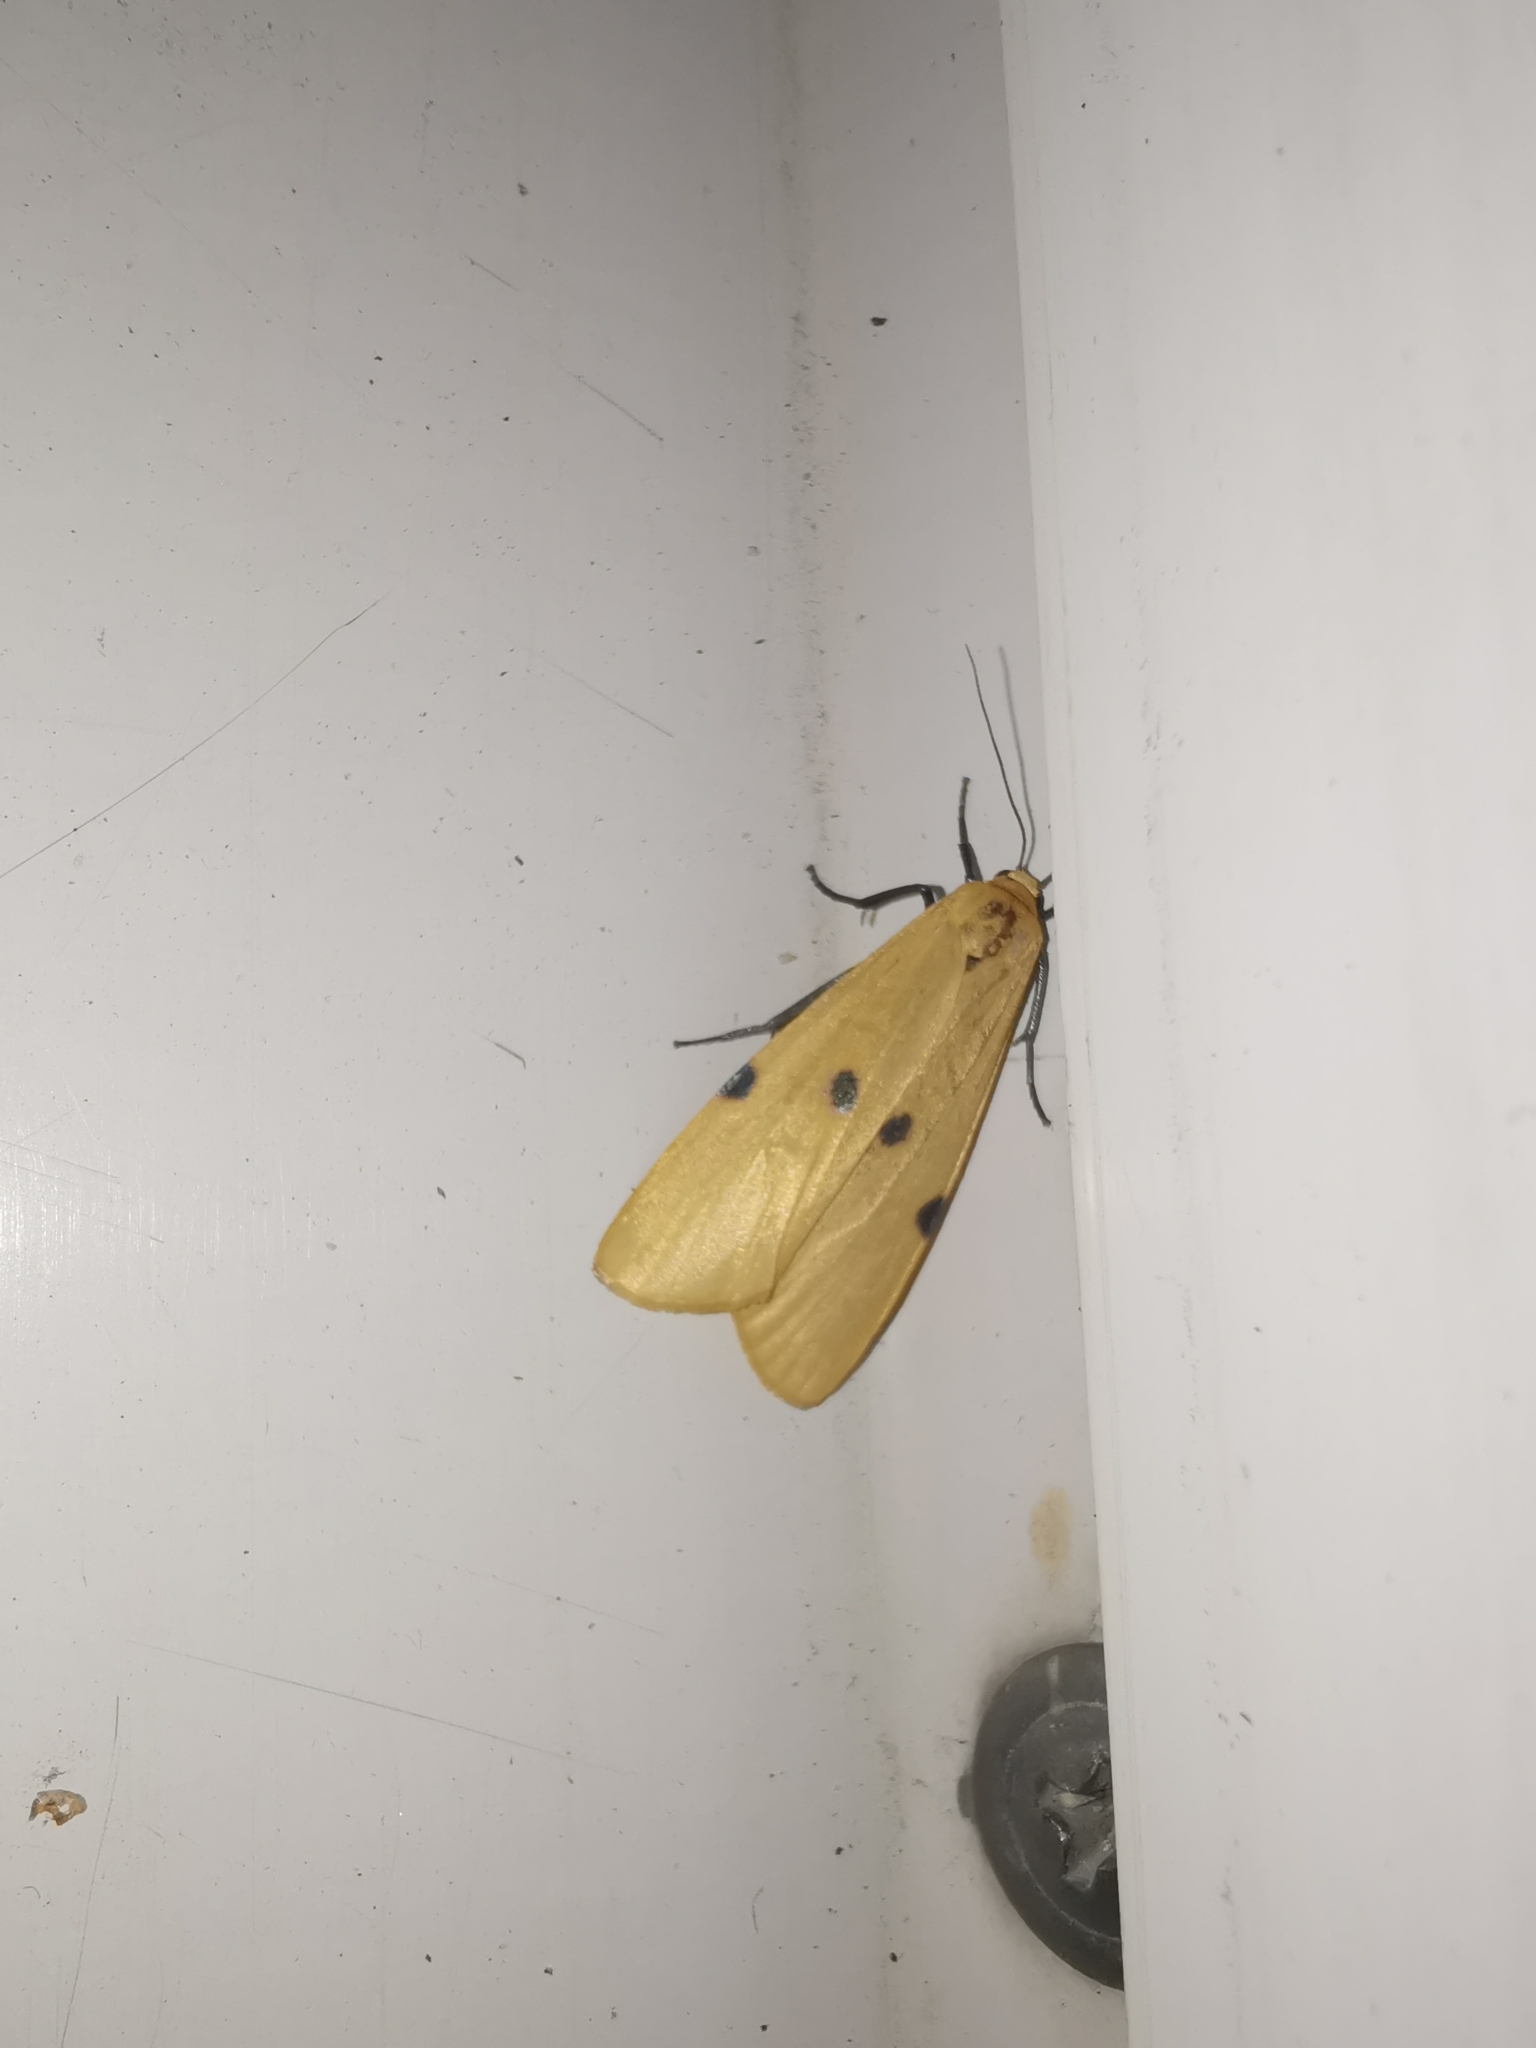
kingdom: Animalia
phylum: Arthropoda
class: Insecta
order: Lepidoptera
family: Erebidae
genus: Lithosia
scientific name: Lithosia quadra
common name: Four-spotted footman
